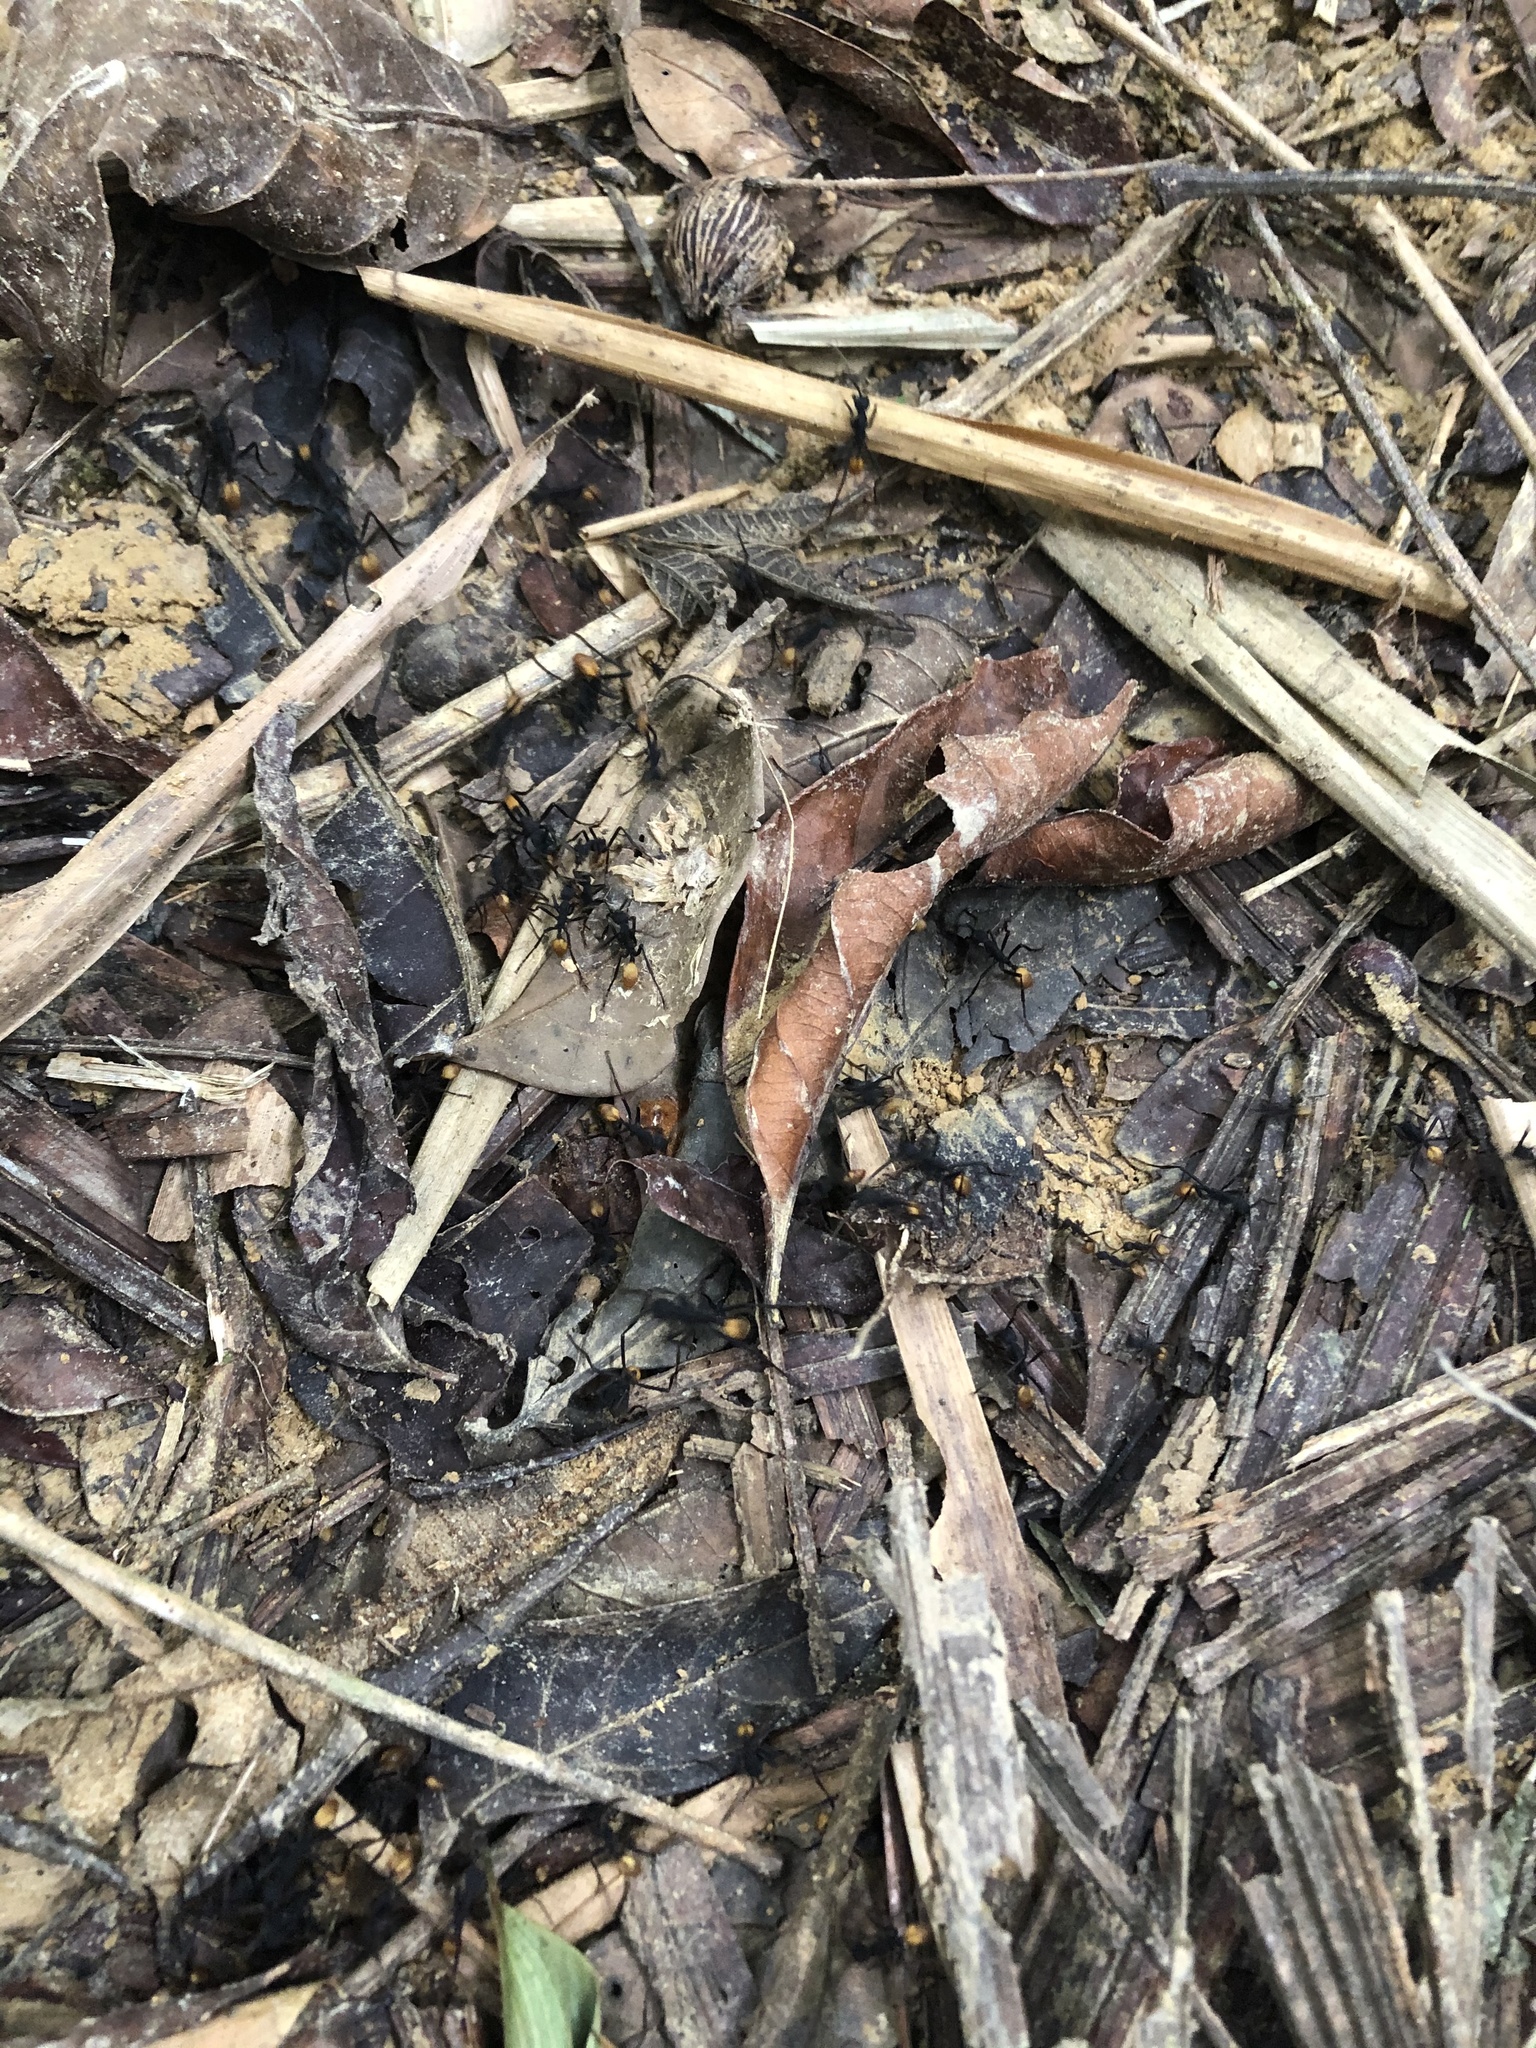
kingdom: Animalia
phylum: Arthropoda
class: Insecta
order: Hymenoptera
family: Formicidae
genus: Eciton
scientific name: Eciton rapax
